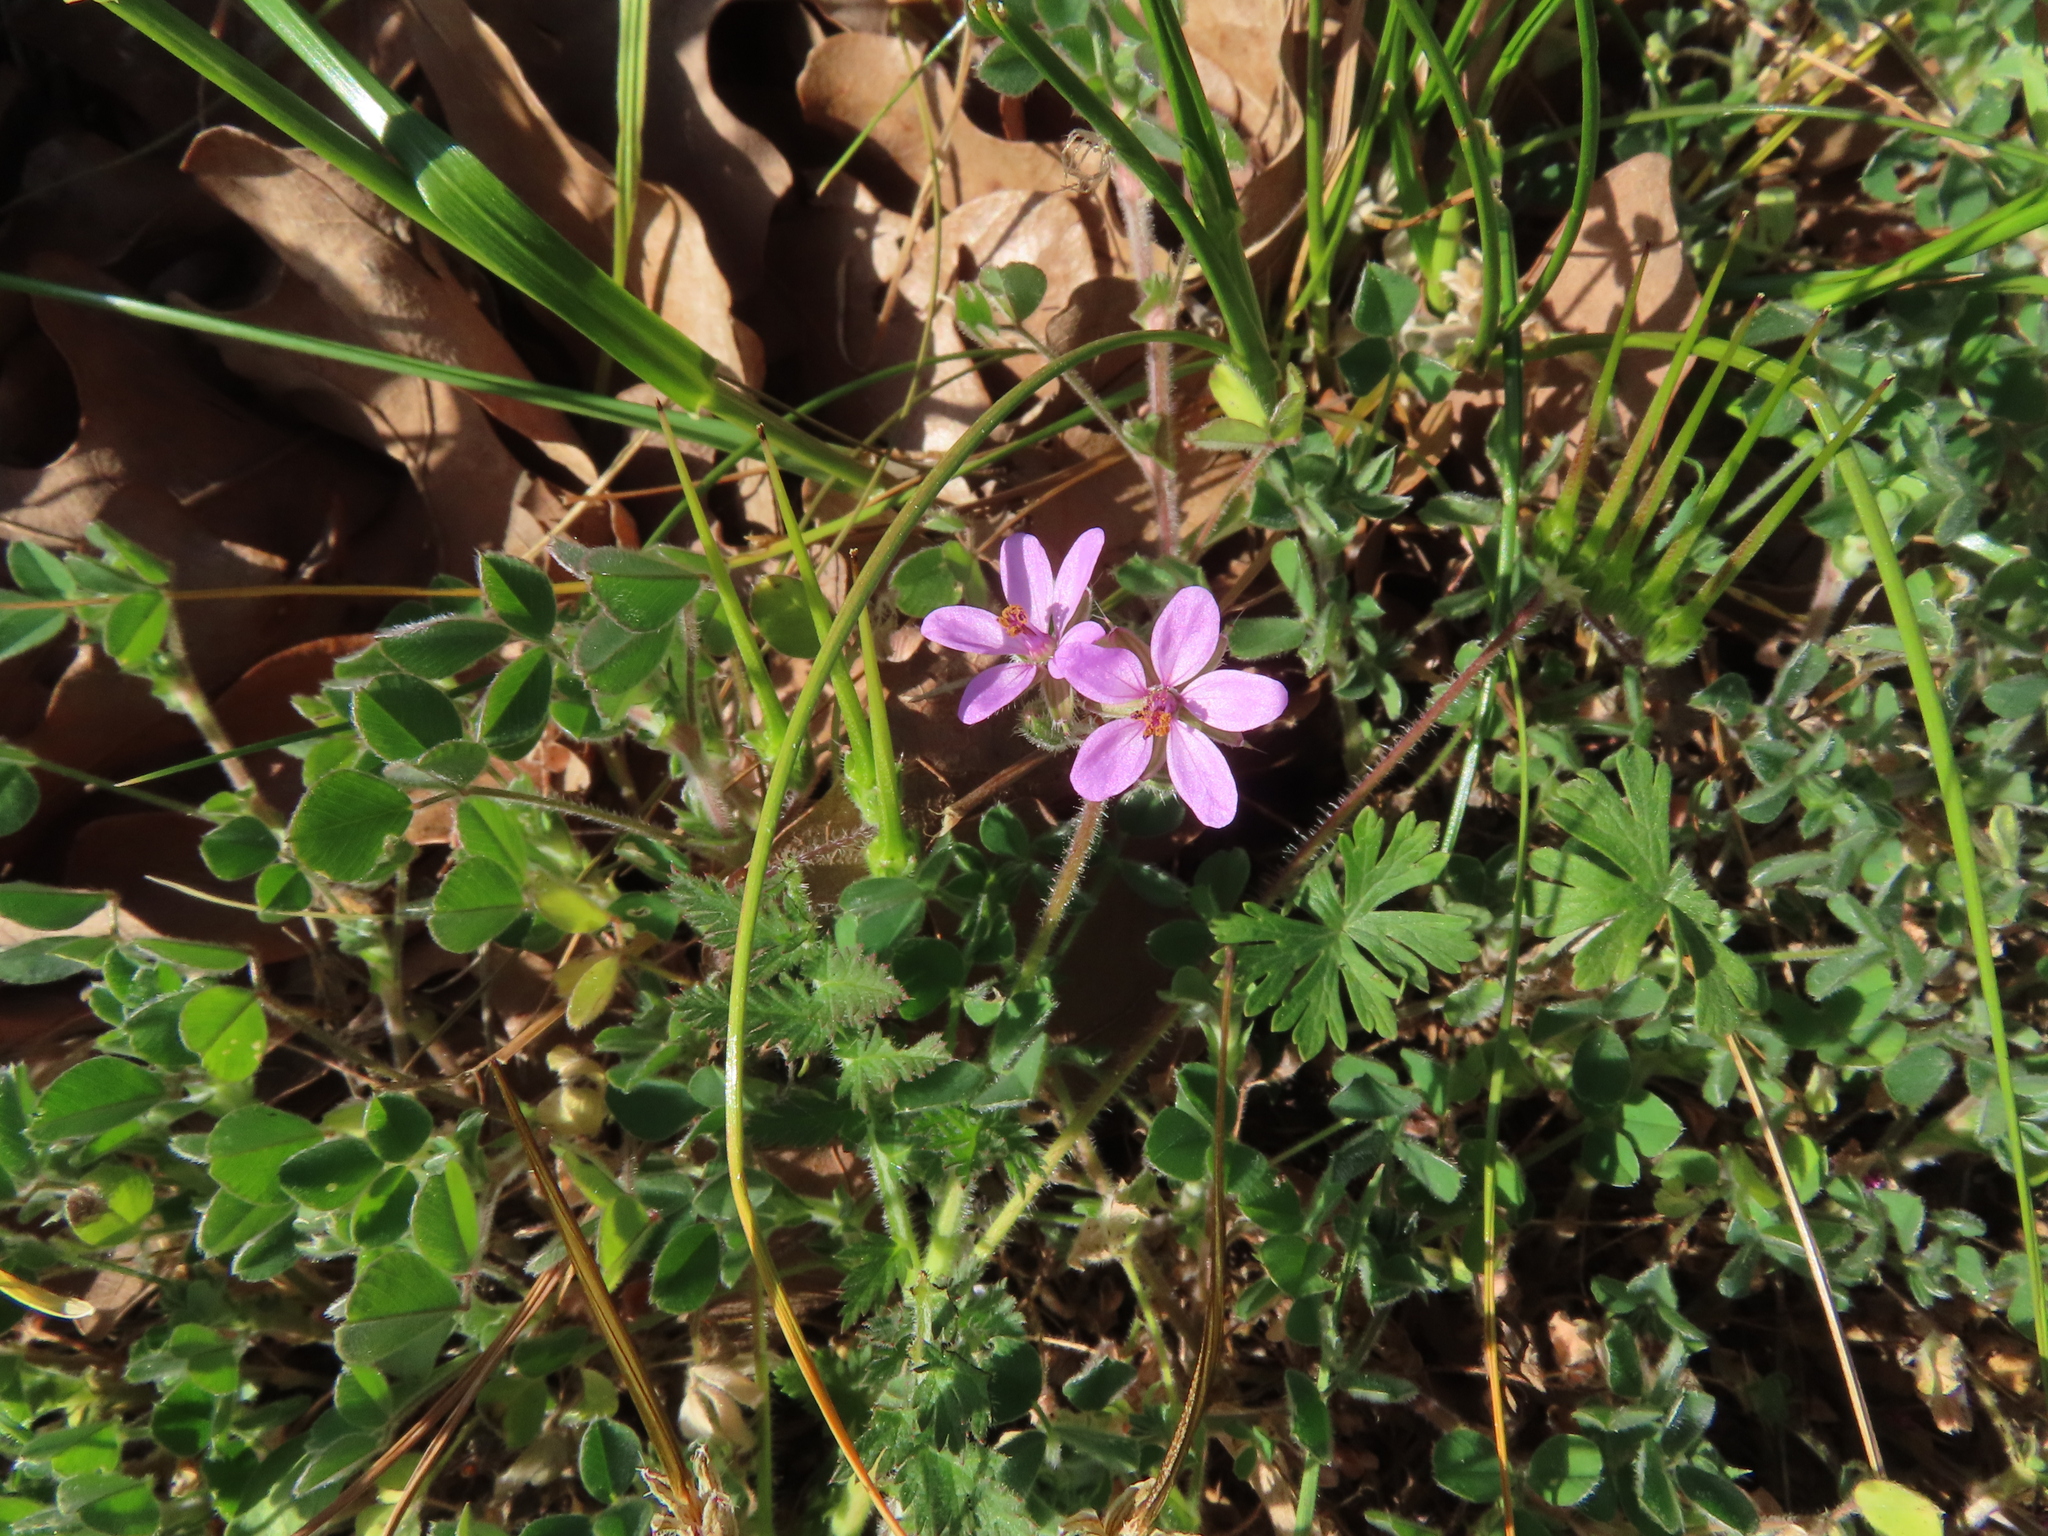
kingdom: Plantae
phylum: Tracheophyta
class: Magnoliopsida
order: Geraniales
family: Geraniaceae
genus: Erodium
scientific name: Erodium cicutarium
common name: Common stork's-bill
